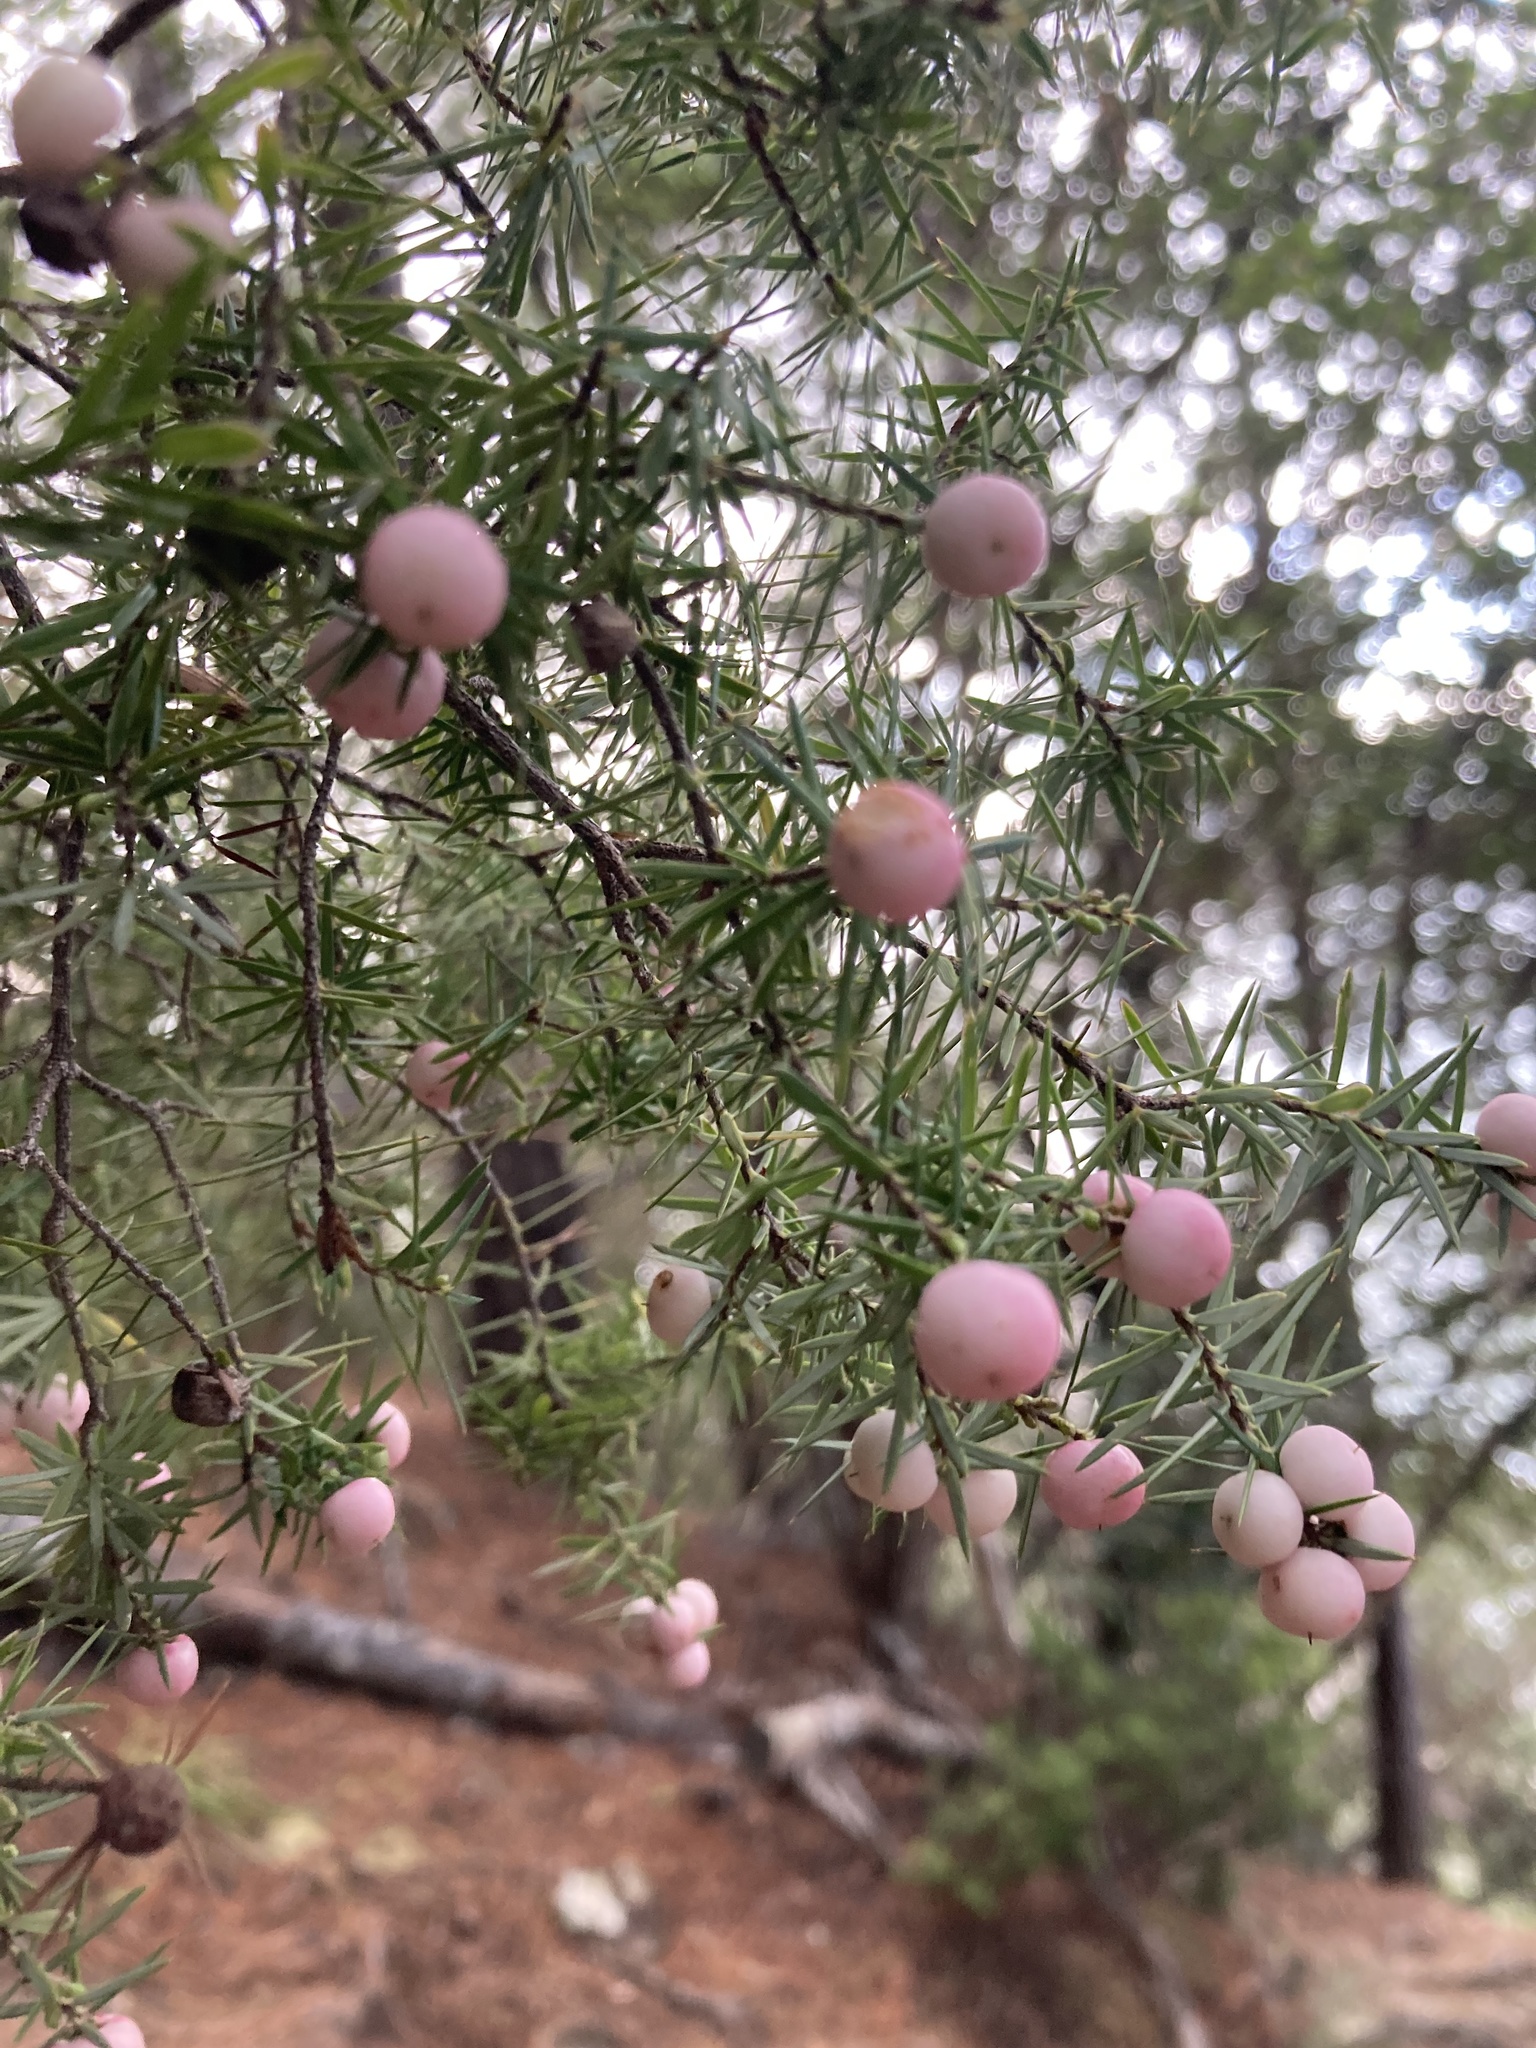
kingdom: Plantae
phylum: Tracheophyta
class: Magnoliopsida
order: Ericales
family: Ericaceae
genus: Leptecophylla
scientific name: Leptecophylla juniperina
